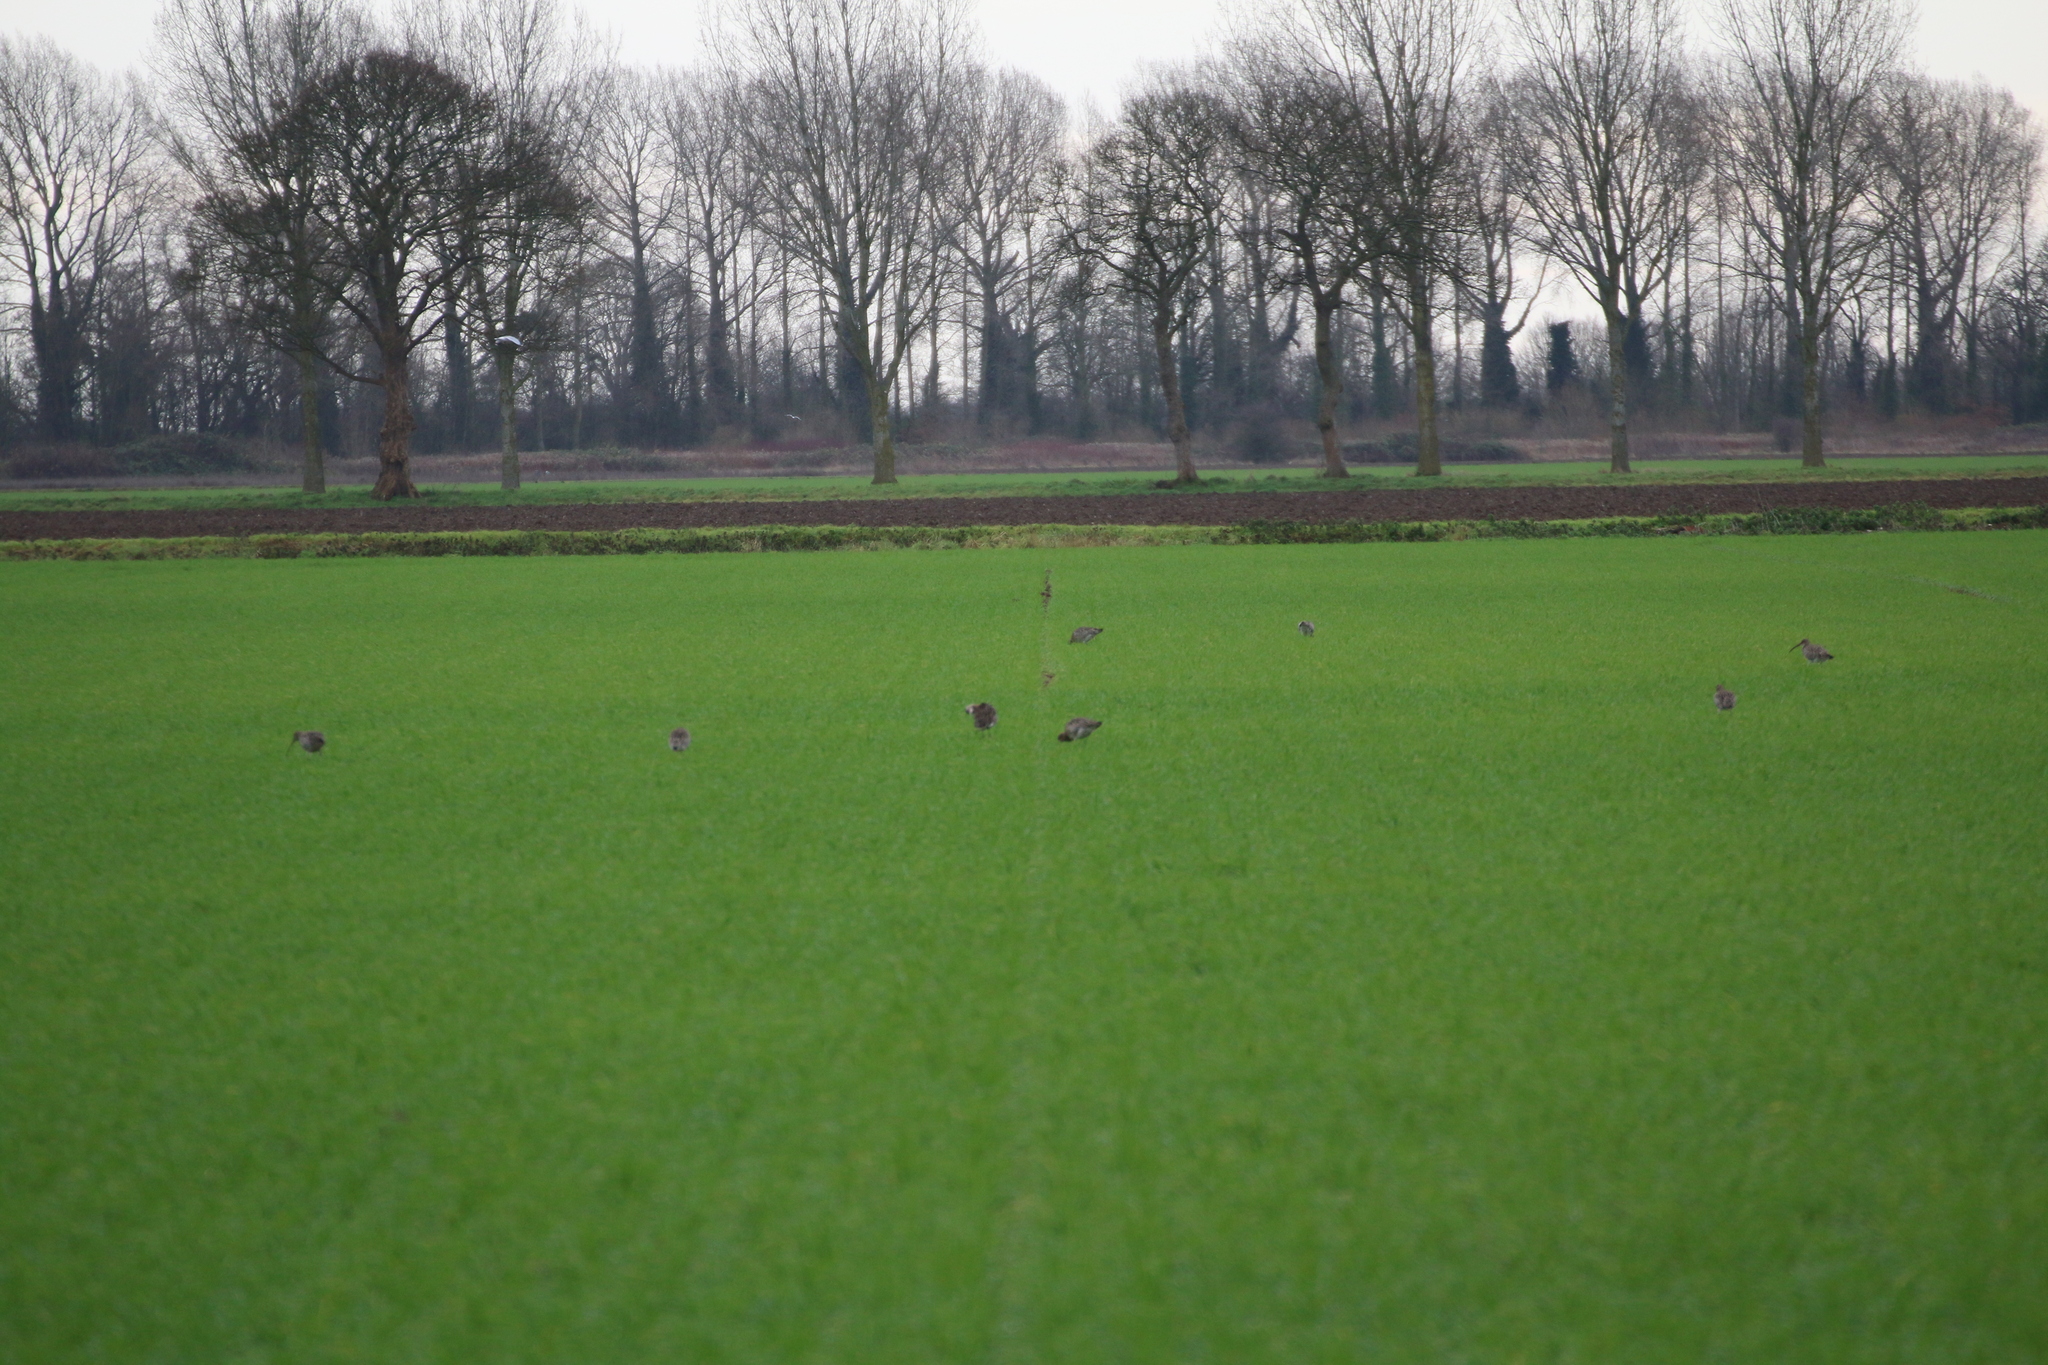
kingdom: Animalia
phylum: Chordata
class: Aves
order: Charadriiformes
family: Scolopacidae
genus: Numenius
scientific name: Numenius arquata
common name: Eurasian curlew
